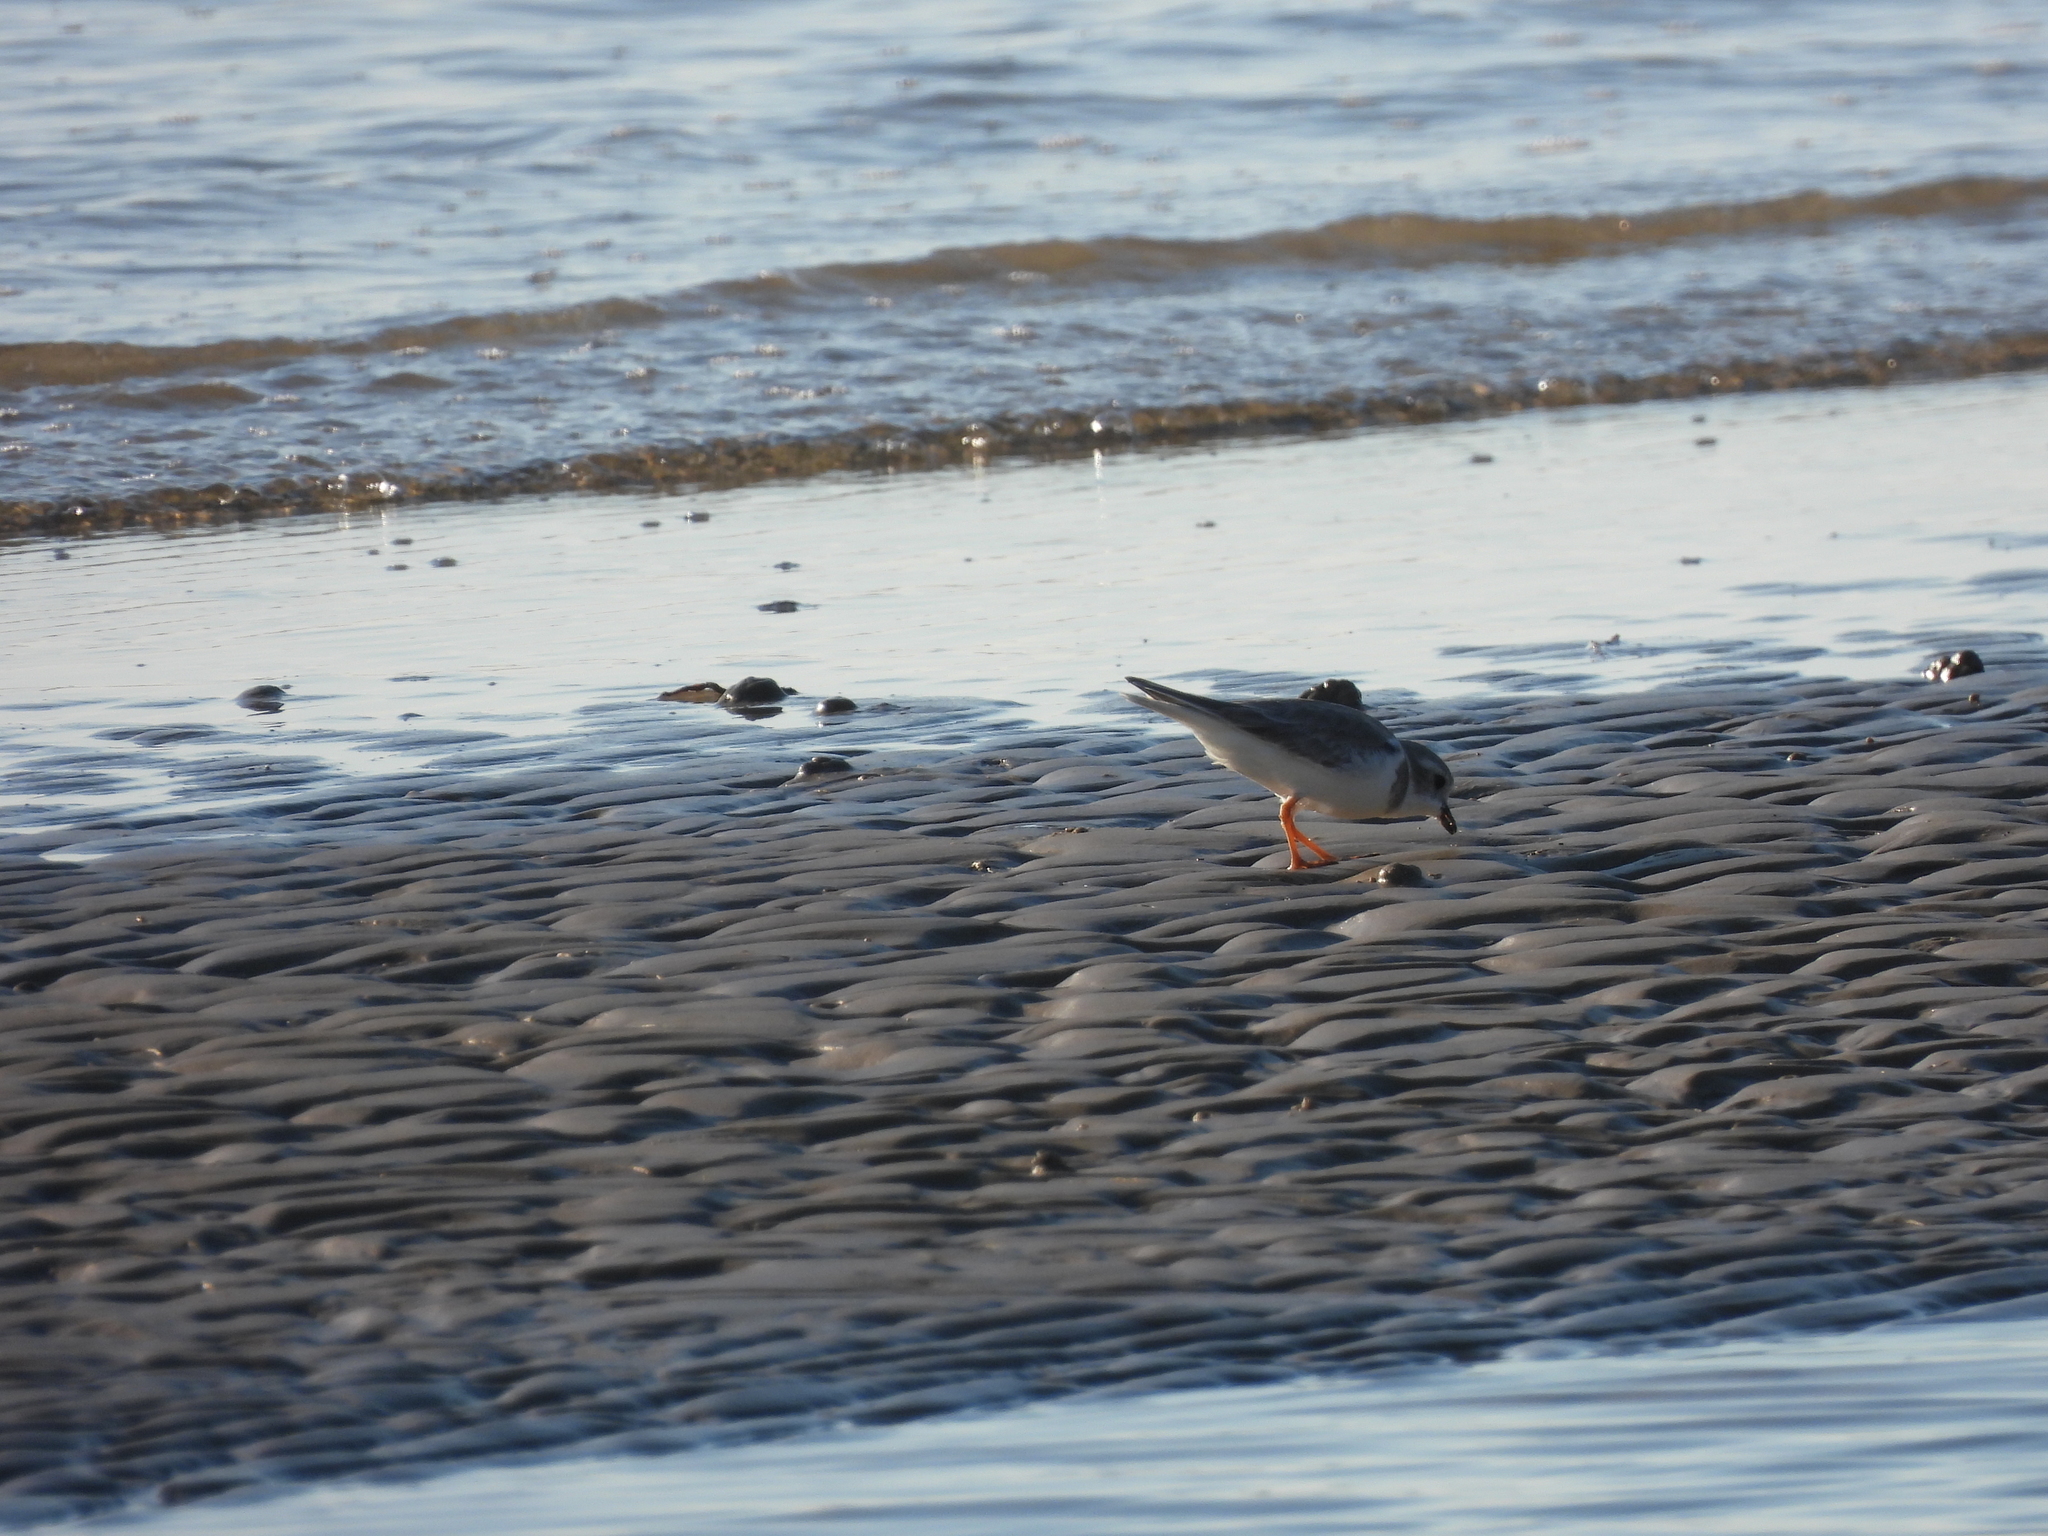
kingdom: Animalia
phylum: Chordata
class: Aves
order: Charadriiformes
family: Charadriidae
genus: Charadrius
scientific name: Charadrius melodus
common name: Piping plover
